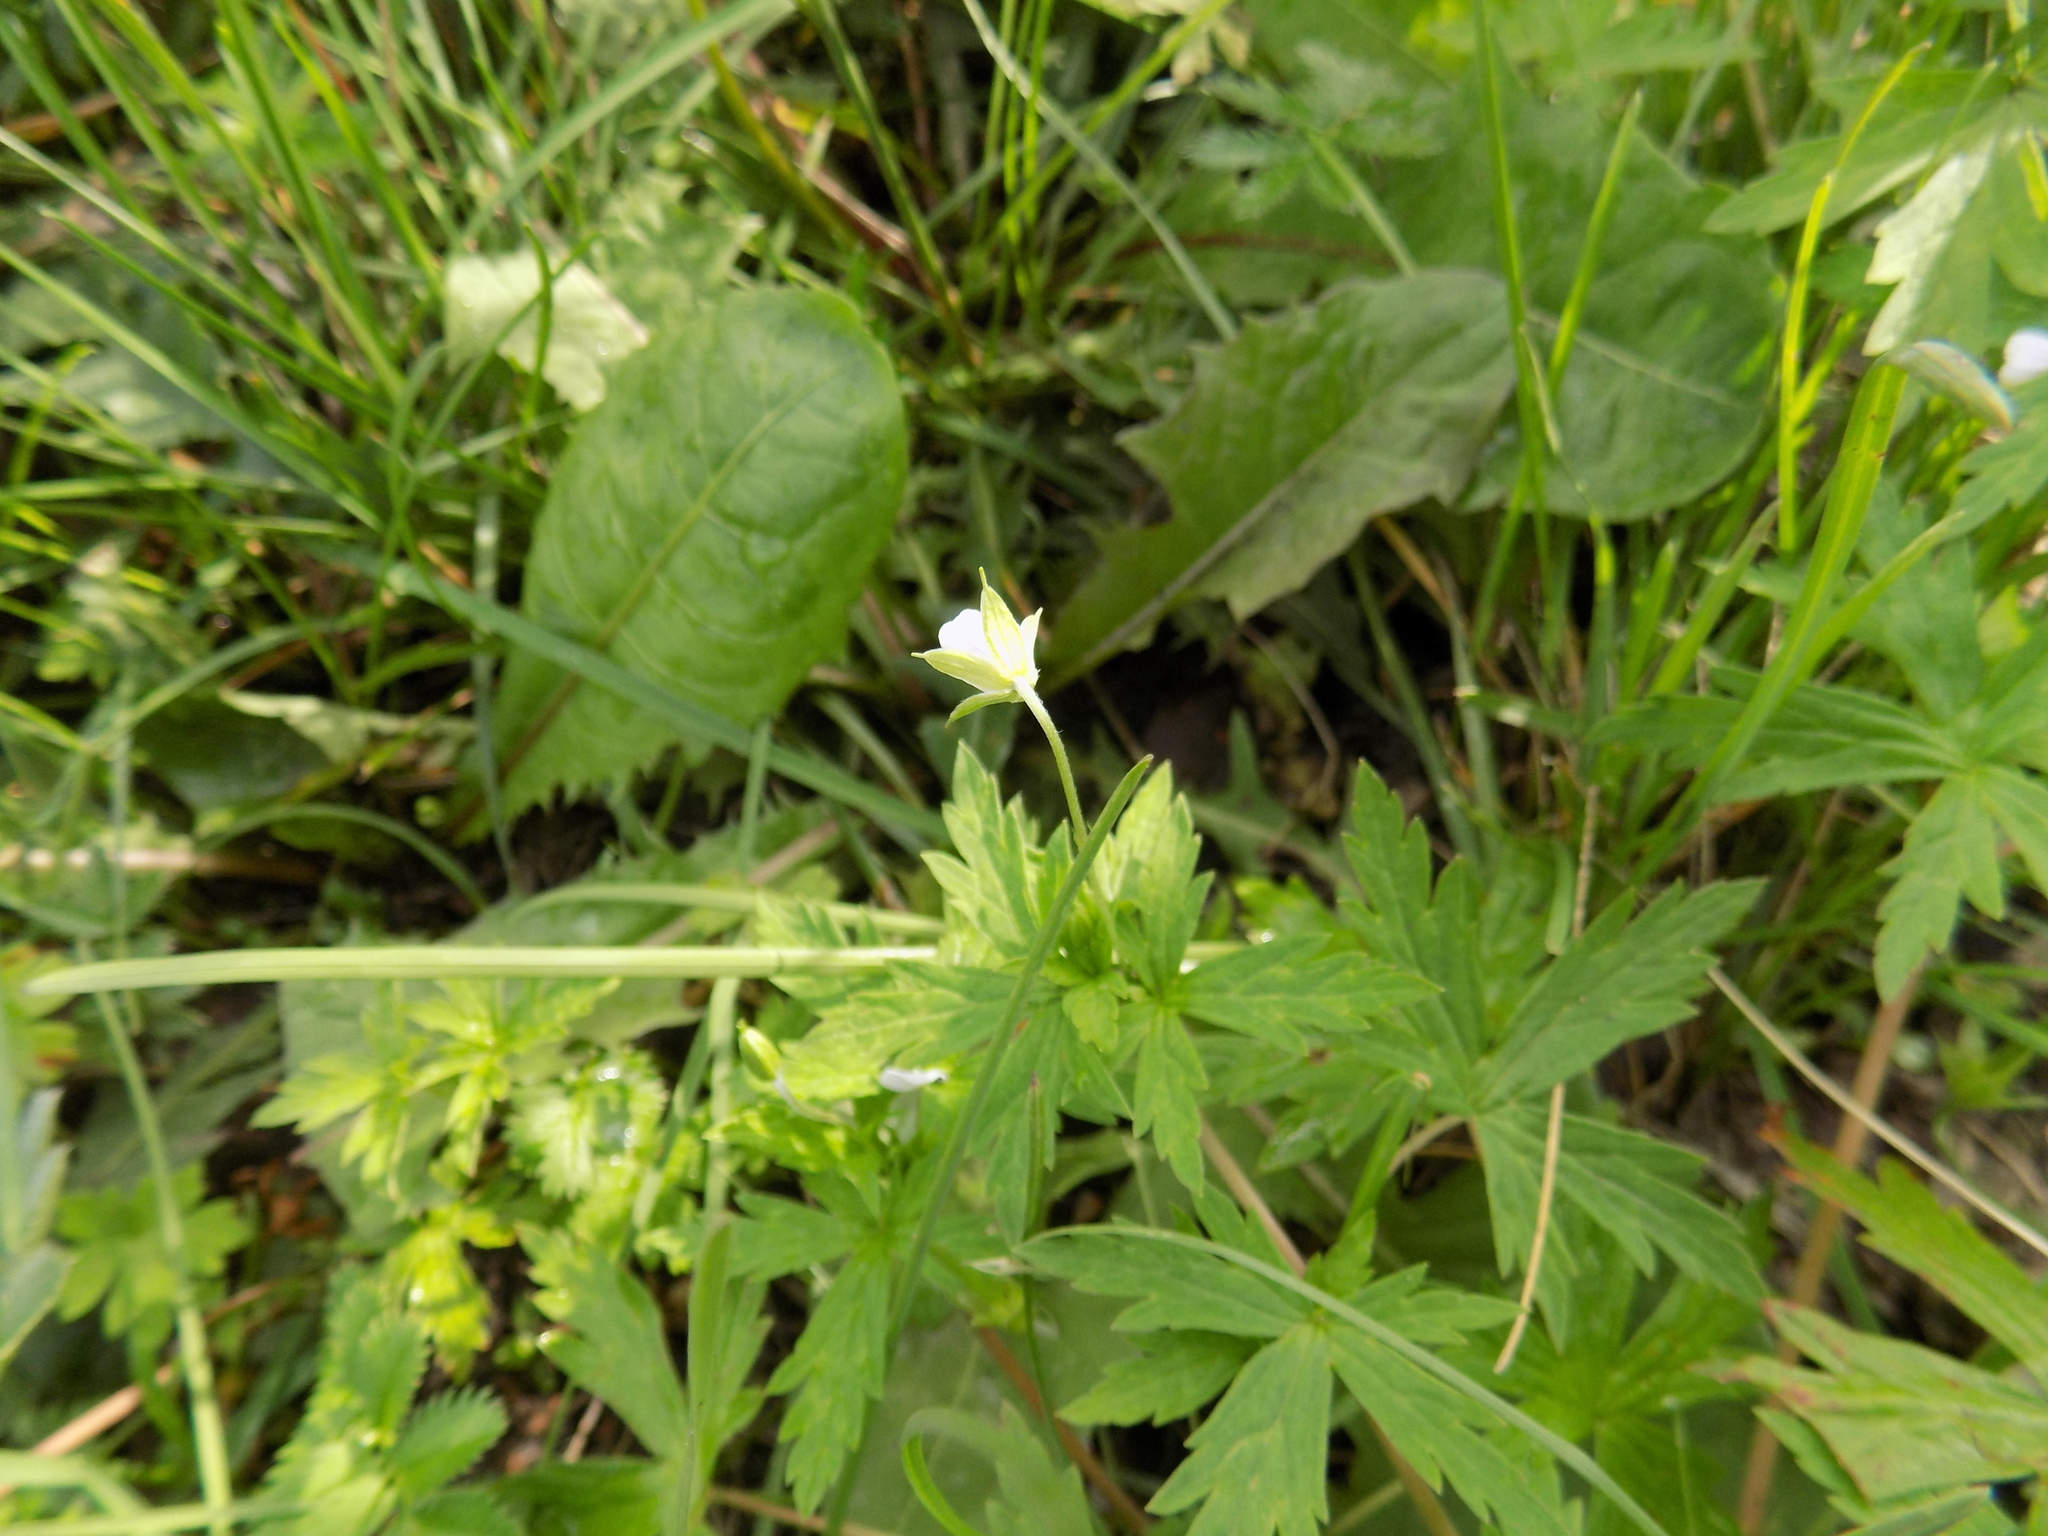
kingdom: Plantae
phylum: Tracheophyta
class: Magnoliopsida
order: Geraniales
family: Geraniaceae
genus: Geranium
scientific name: Geranium sibiricum
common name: Siberian crane's-bill
